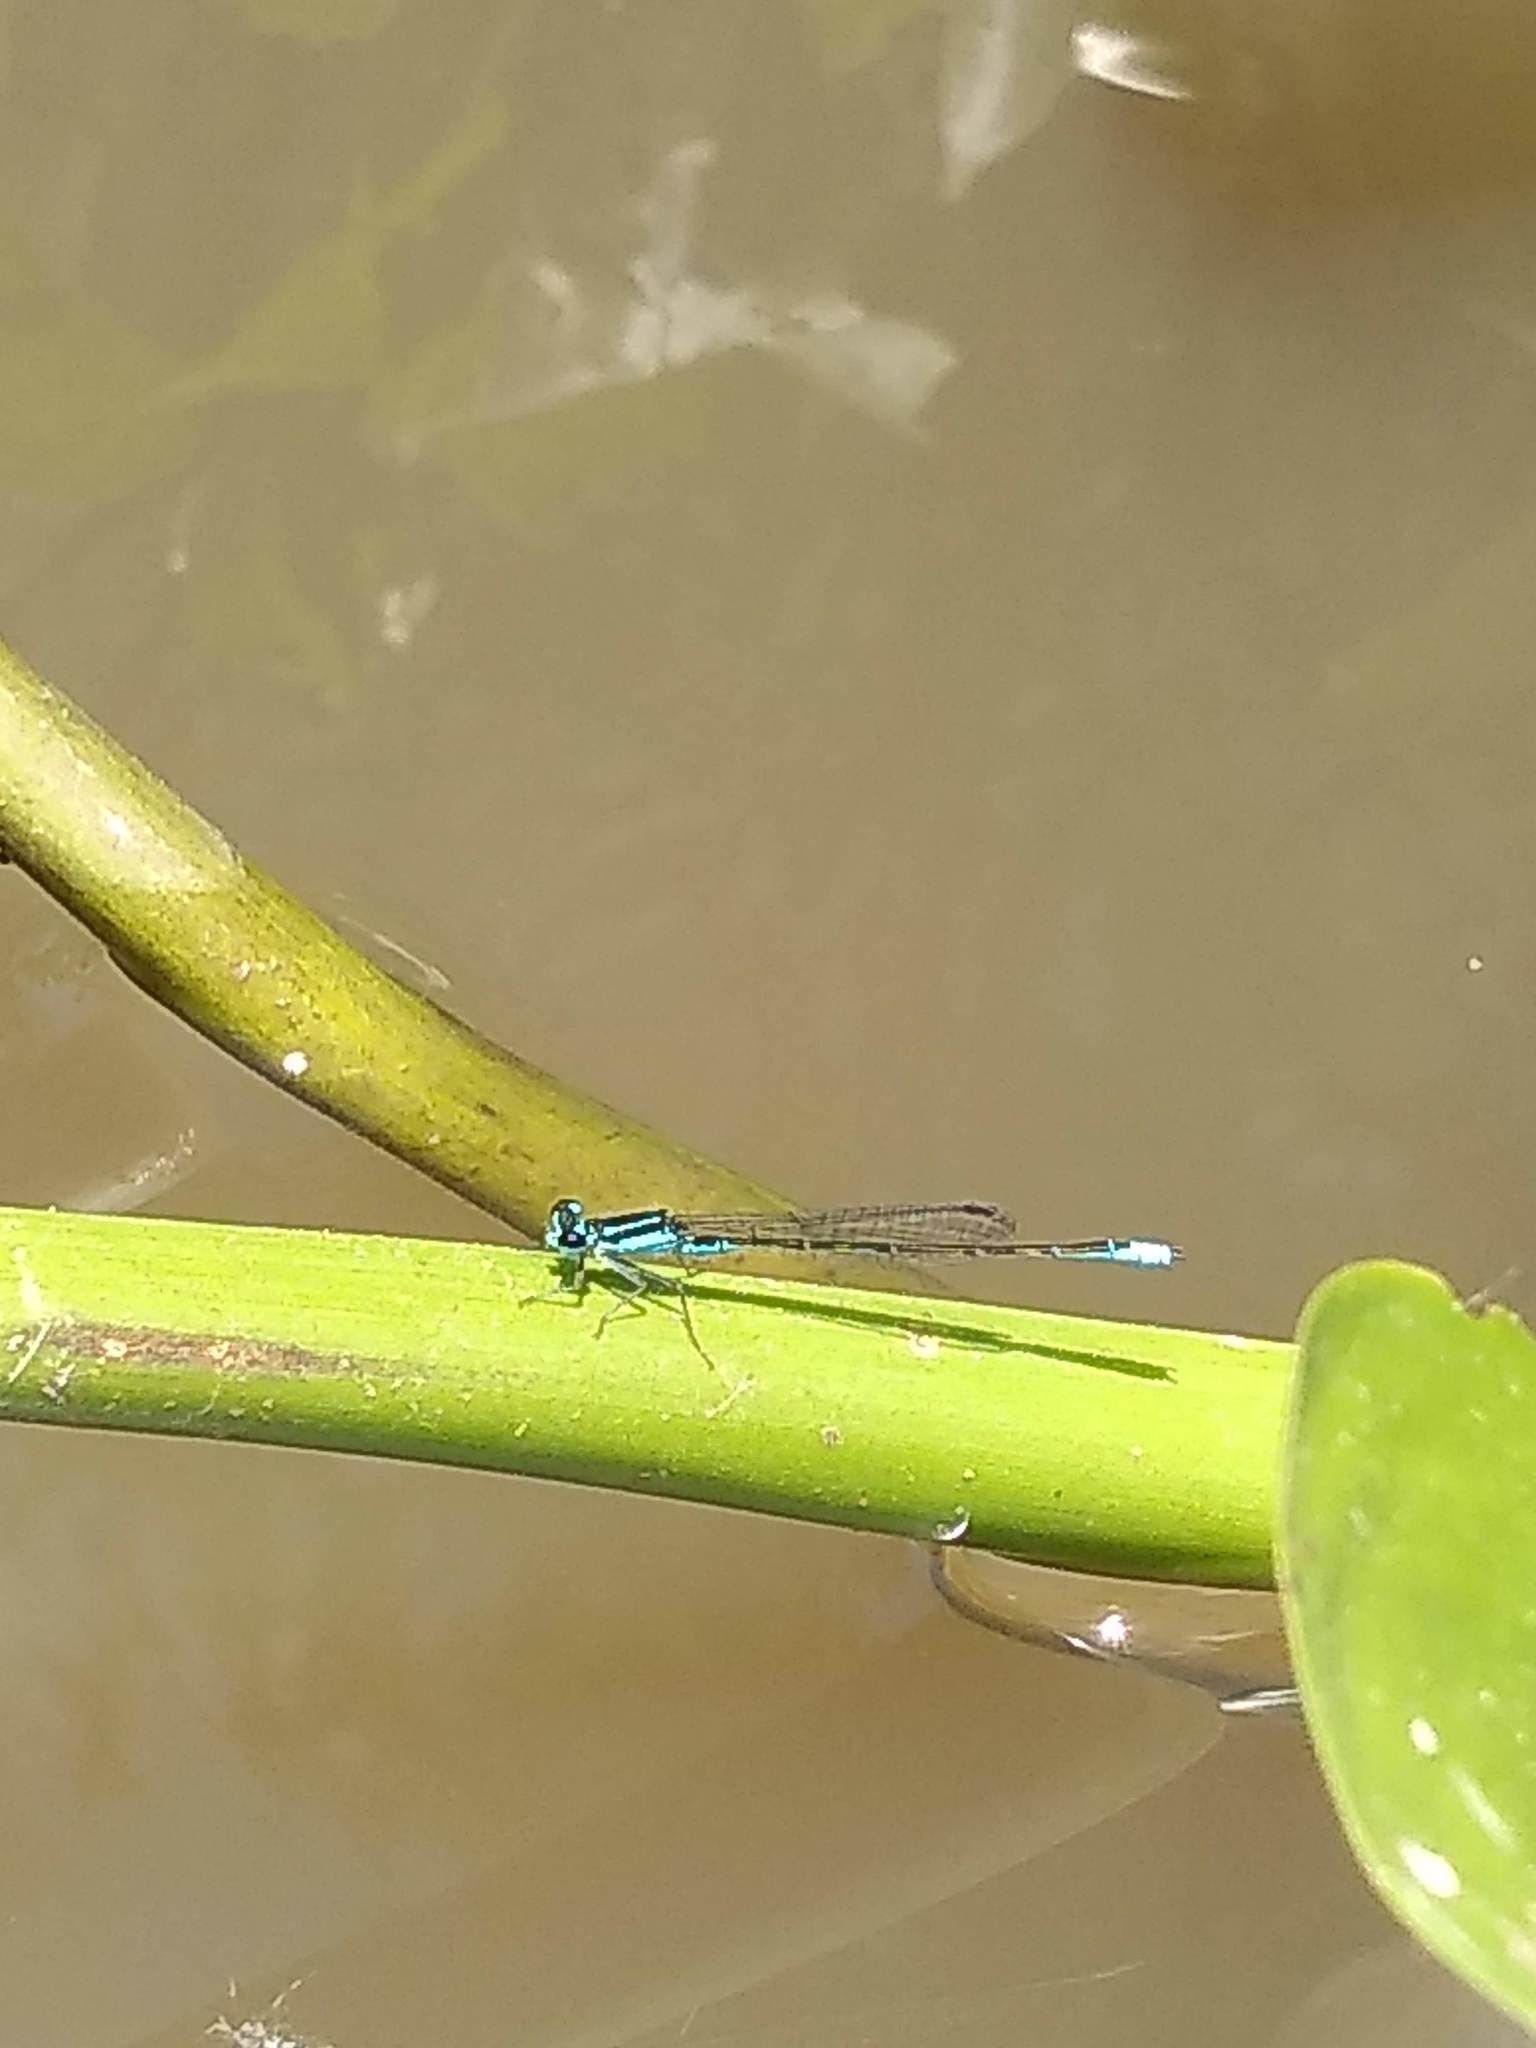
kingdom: Animalia
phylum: Arthropoda
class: Insecta
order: Odonata
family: Coenagrionidae
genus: Homeoura
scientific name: Homeoura chelifera
